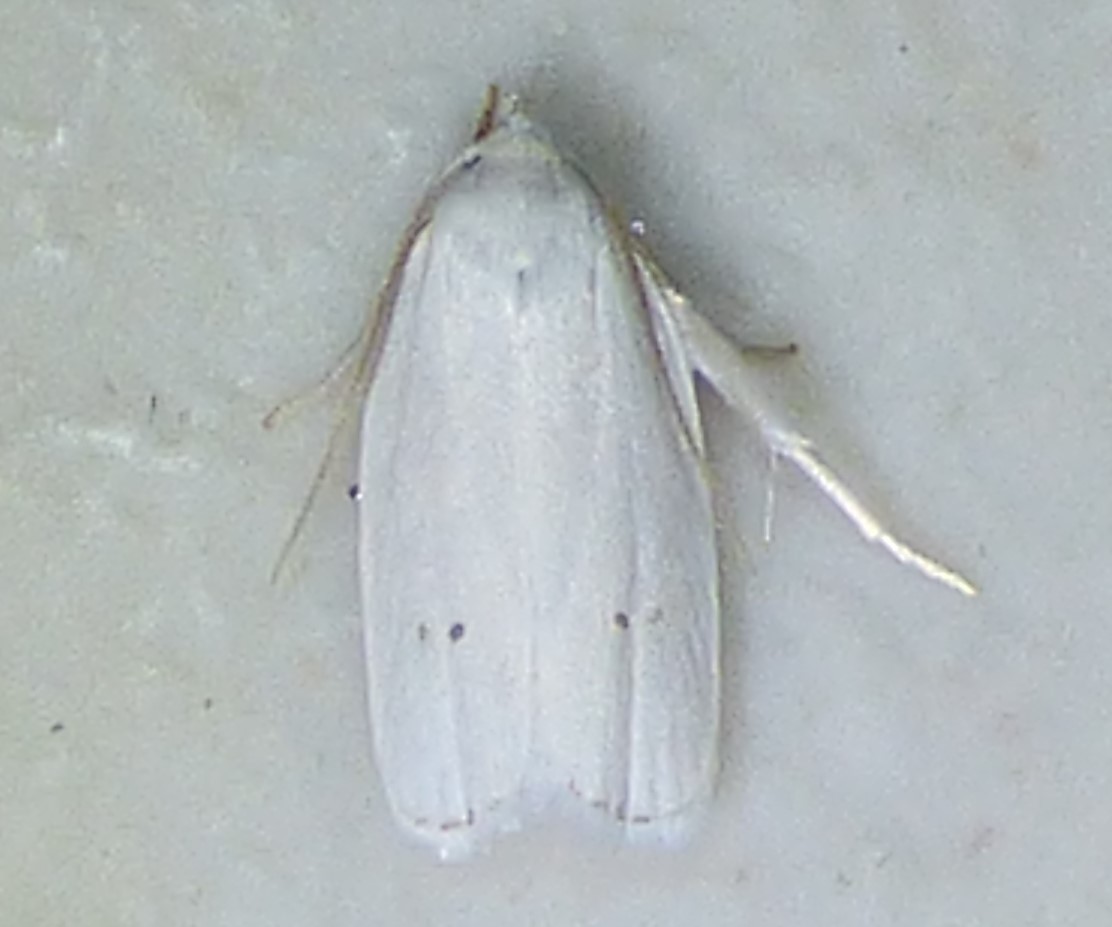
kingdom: Animalia
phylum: Arthropoda
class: Insecta
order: Lepidoptera
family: Depressariidae
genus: Antaeotricha
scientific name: Antaeotricha albulella
